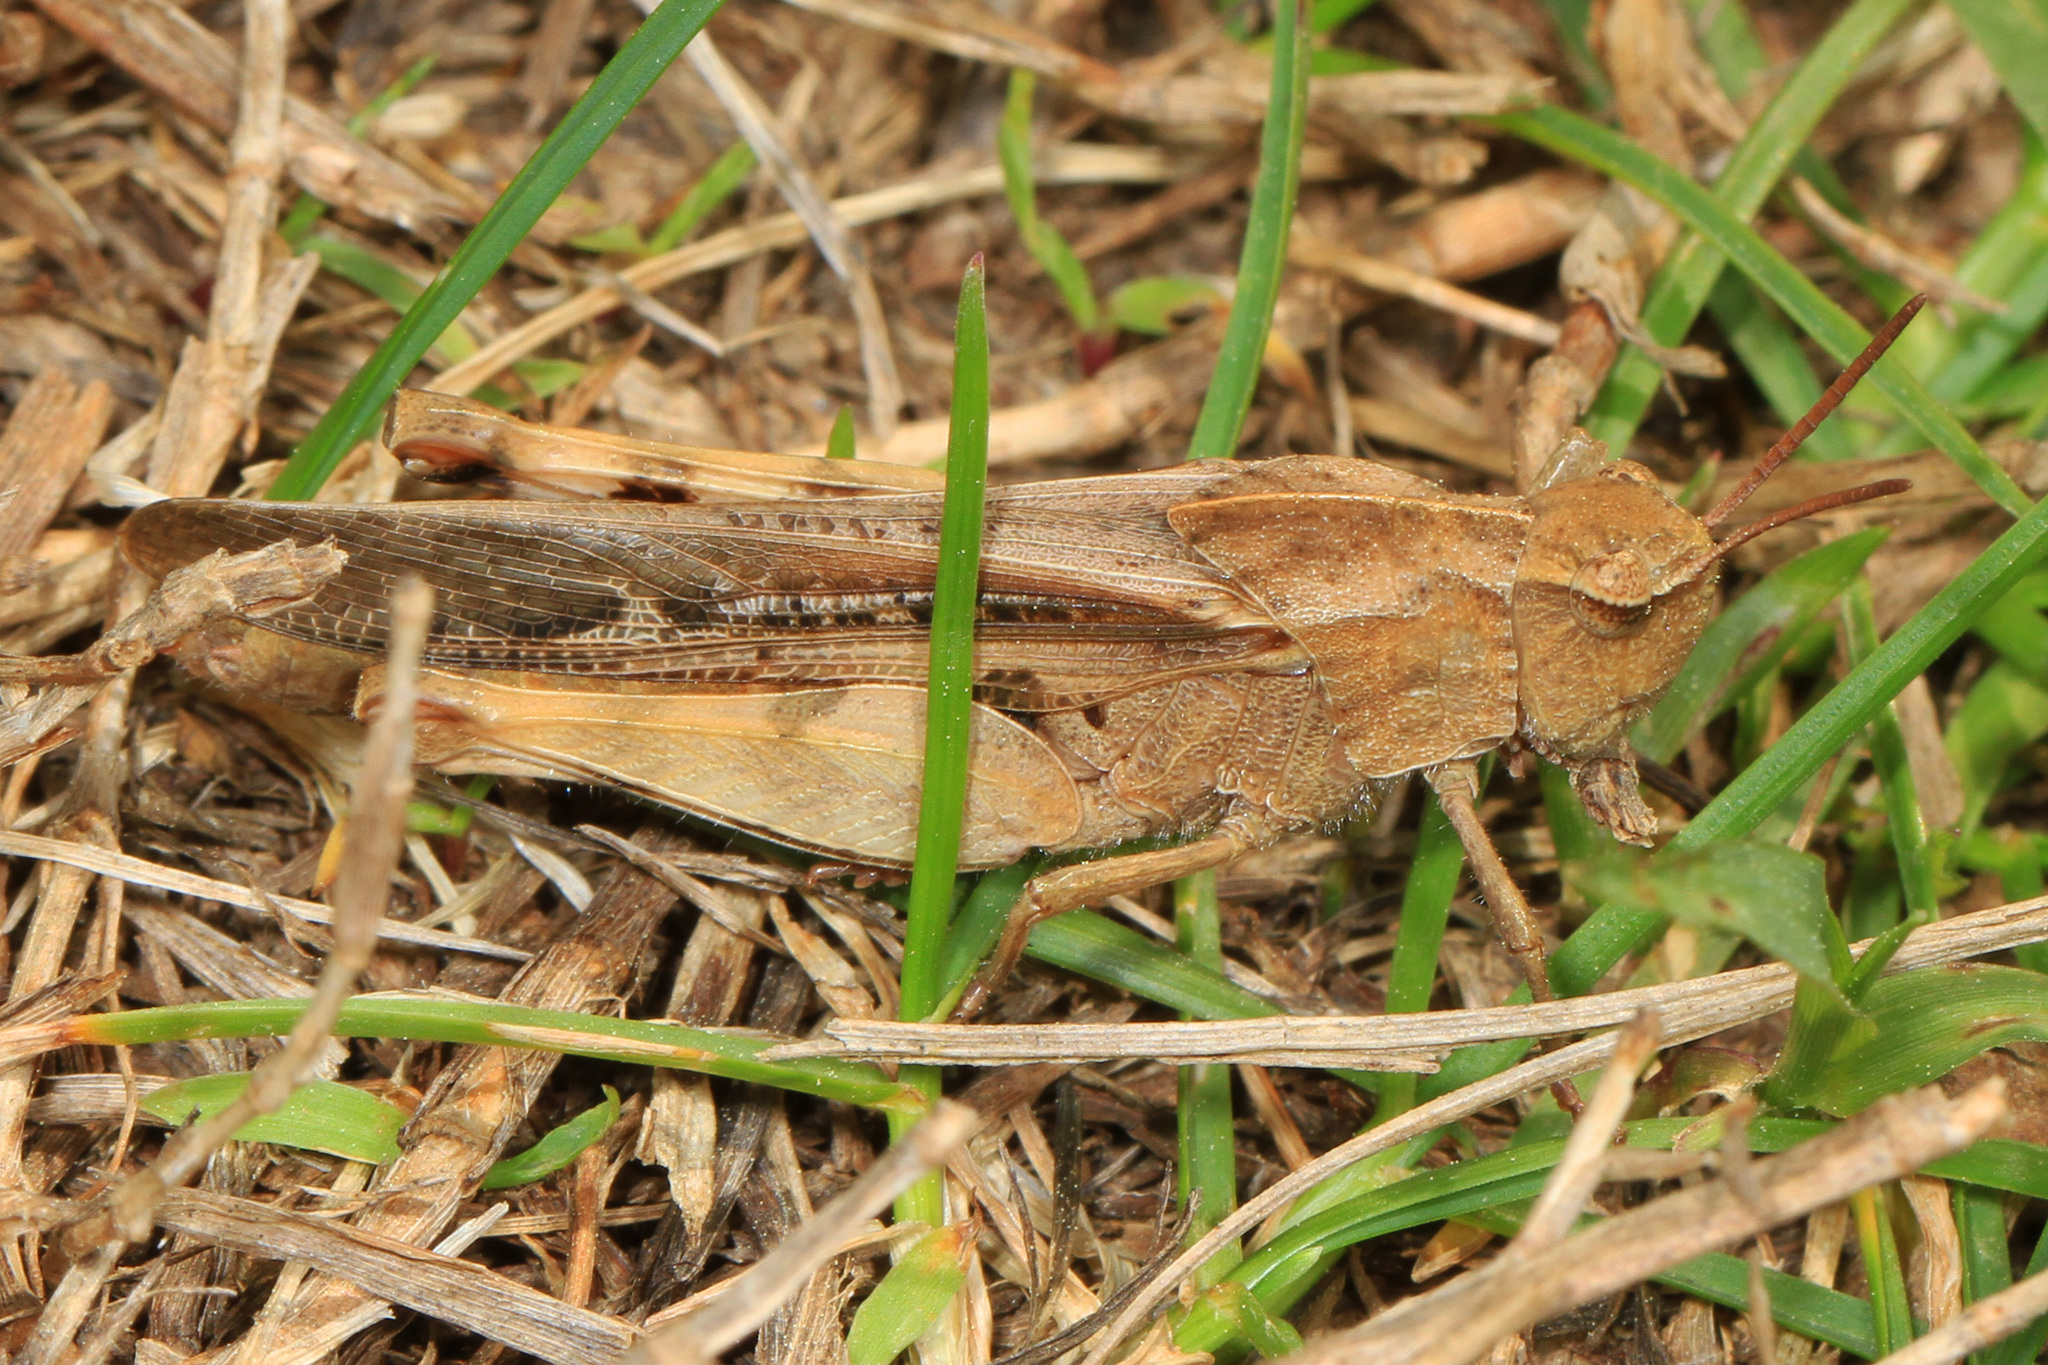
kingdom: Animalia
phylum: Arthropoda
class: Insecta
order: Orthoptera
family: Acrididae
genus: Chortophaga
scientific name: Chortophaga viridifasciata
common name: Green-striped grasshopper
